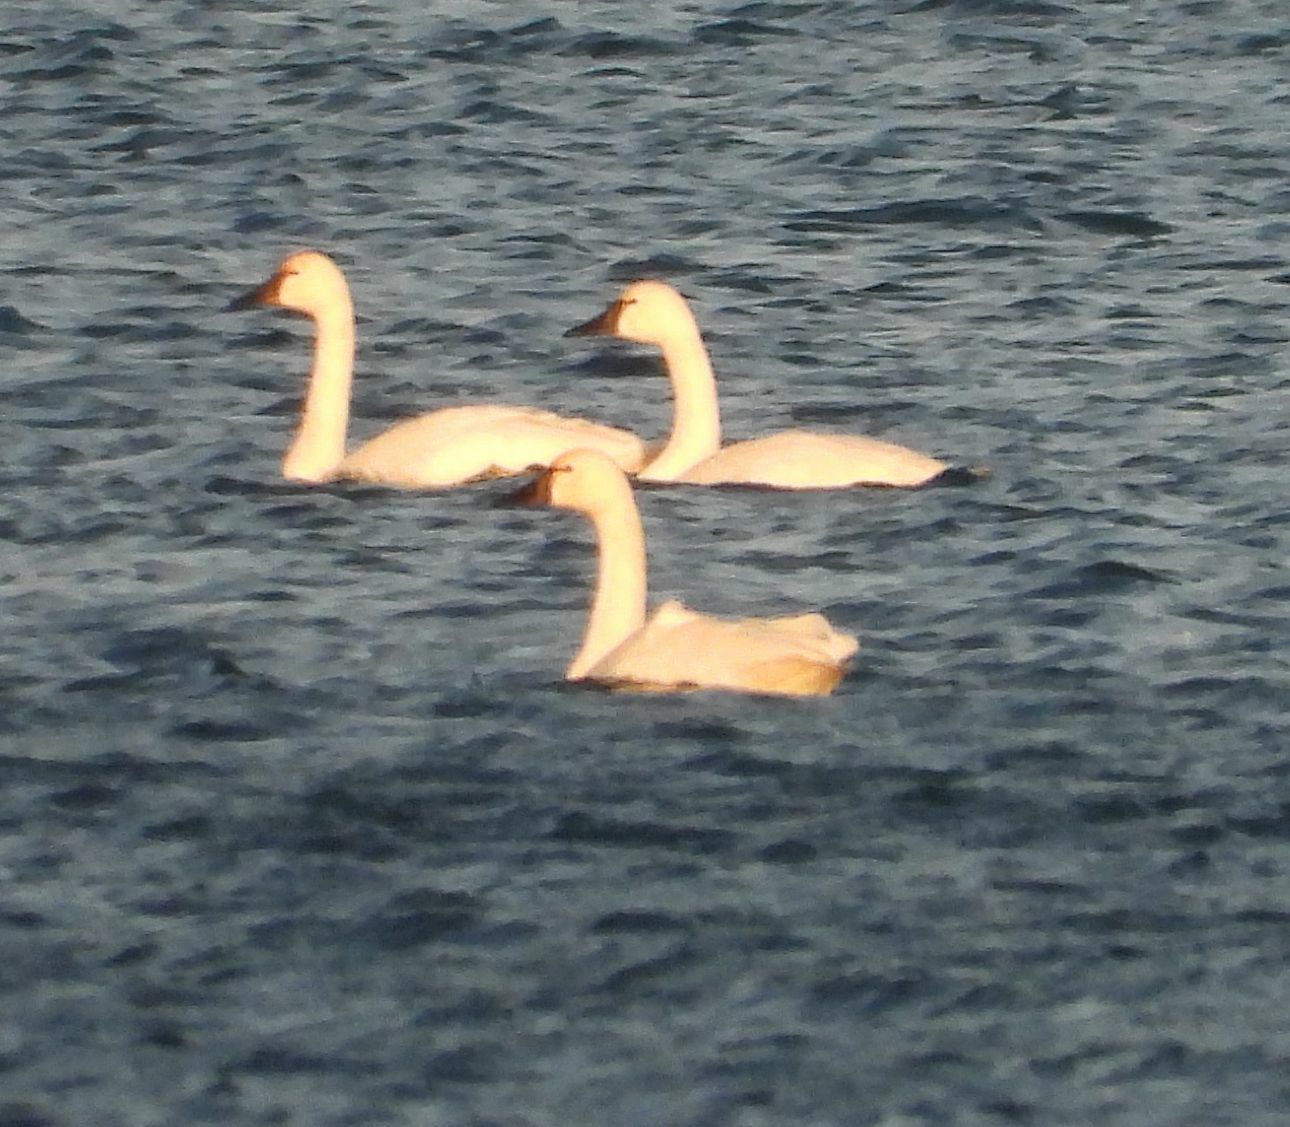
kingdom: Animalia
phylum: Chordata
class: Aves
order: Anseriformes
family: Anatidae
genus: Cygnus
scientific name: Cygnus columbianus
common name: Tundra swan
